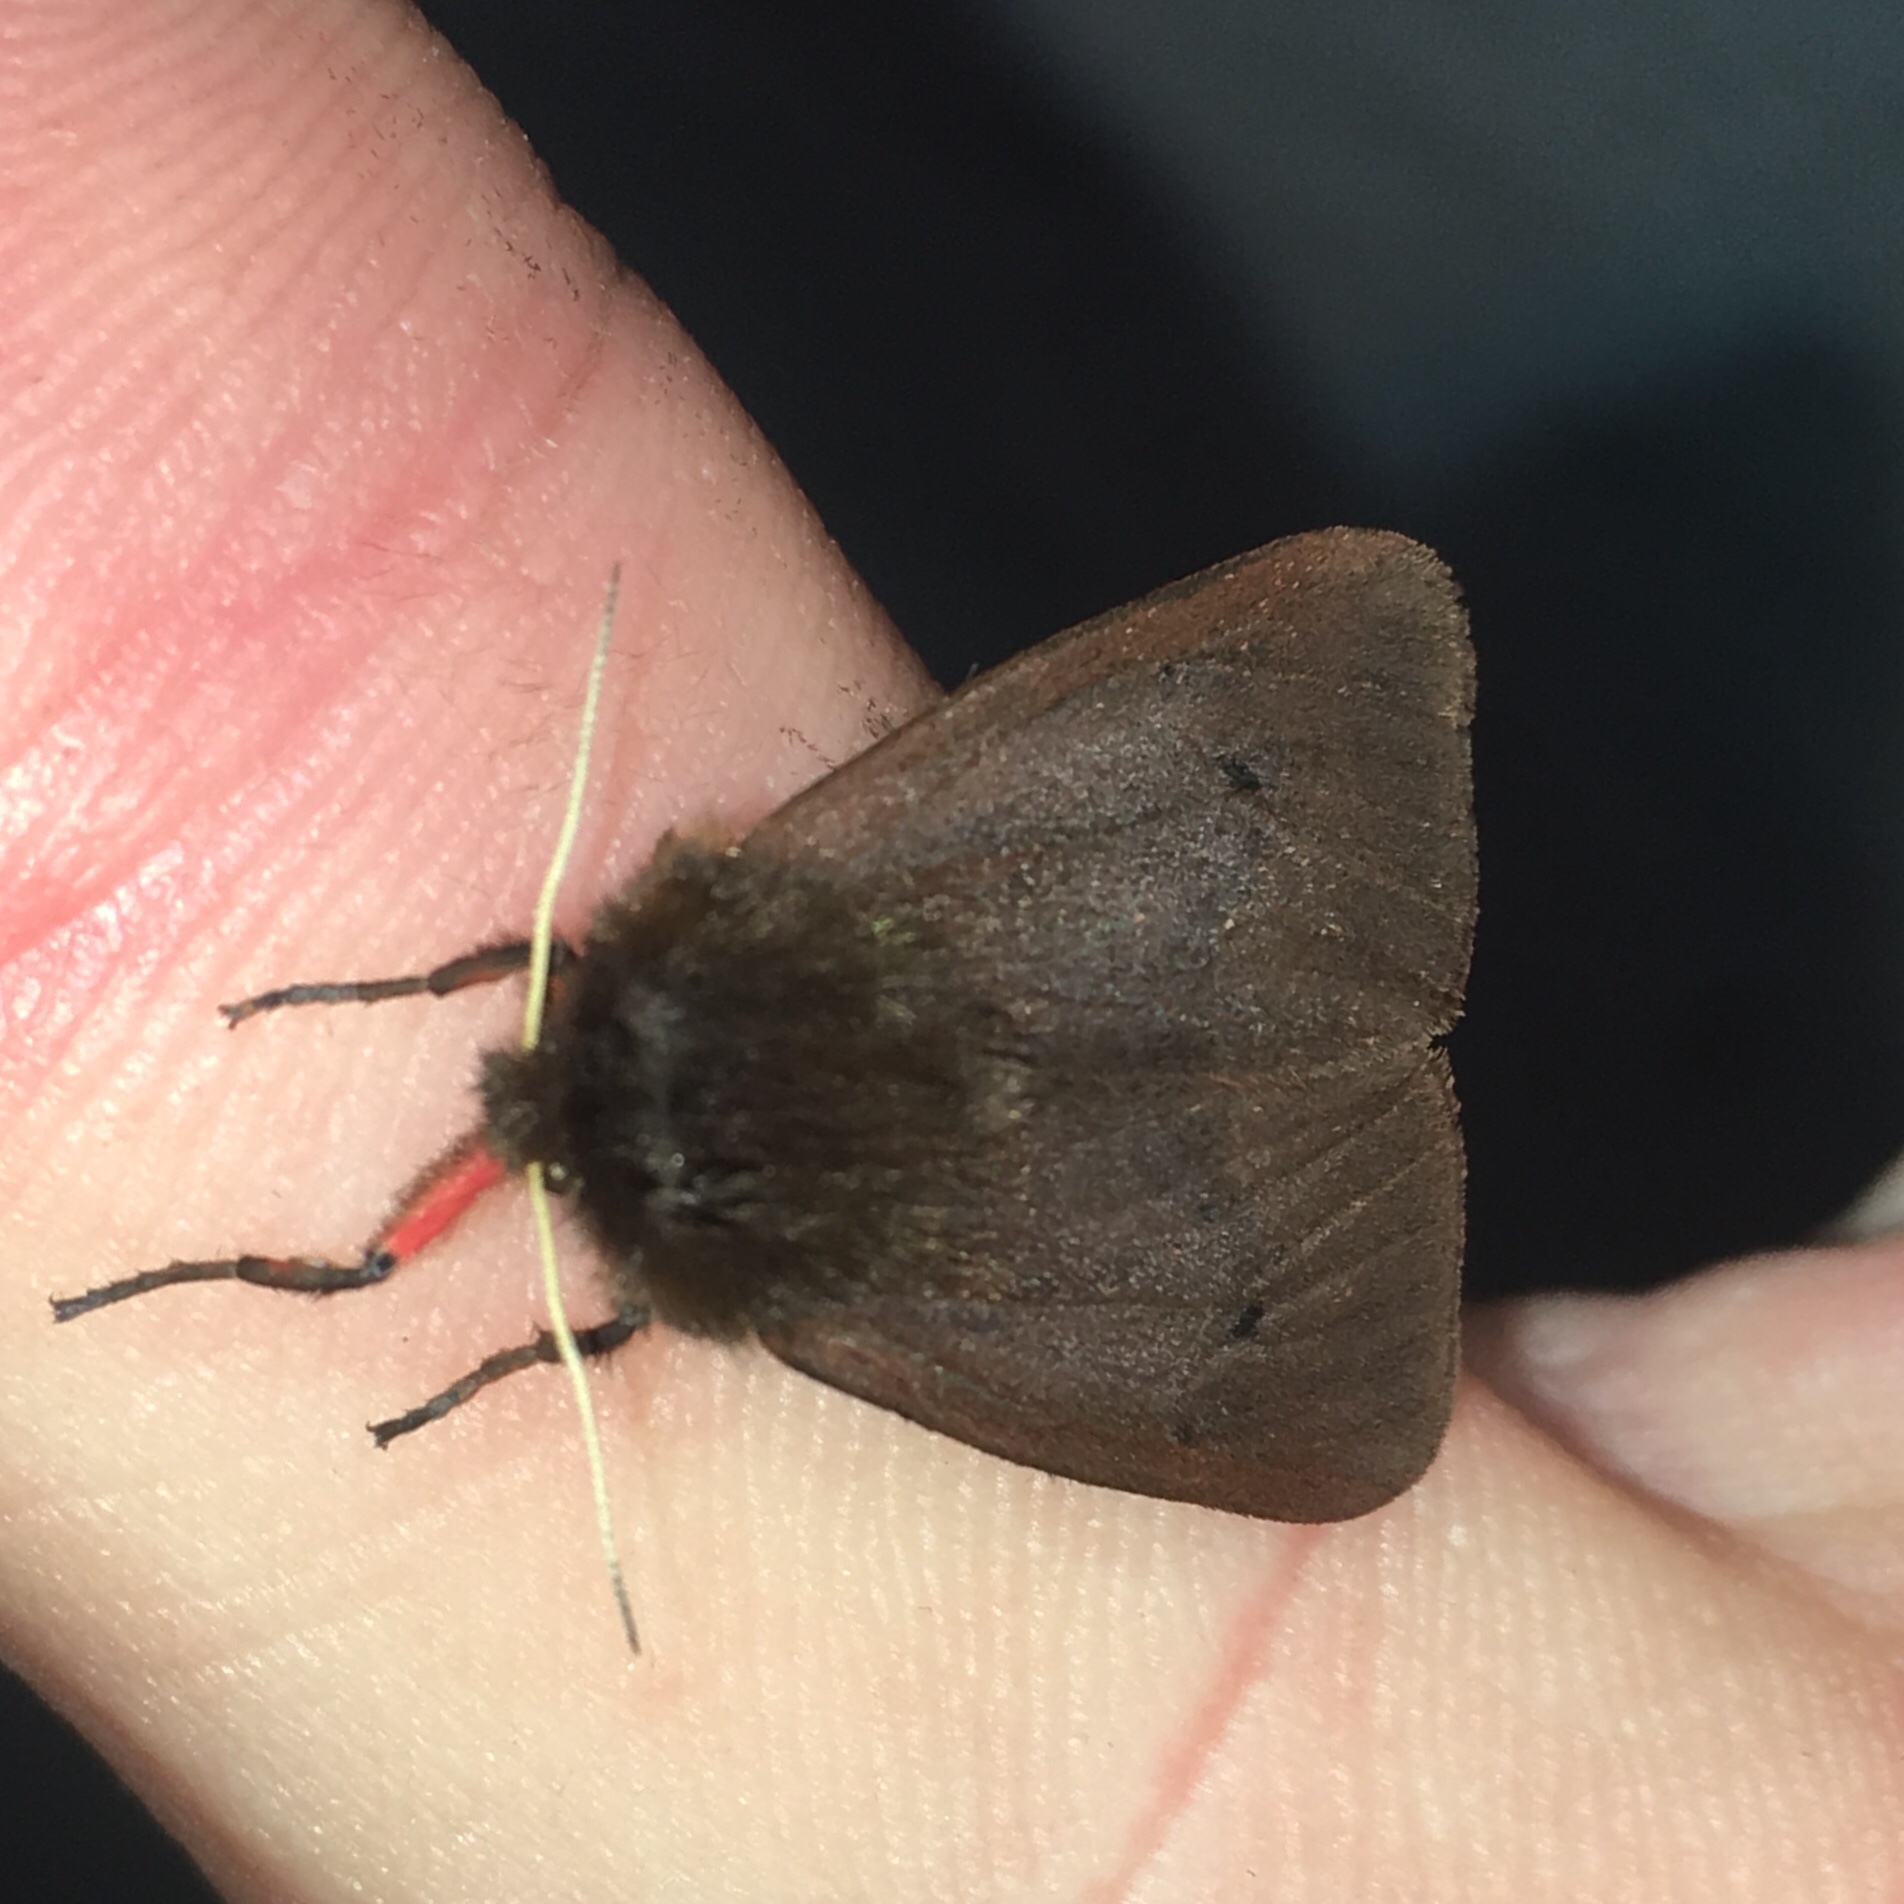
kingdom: Animalia
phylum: Arthropoda
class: Insecta
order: Lepidoptera
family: Erebidae
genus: Phragmatobia
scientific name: Phragmatobia fuliginosa
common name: Ruby tiger
